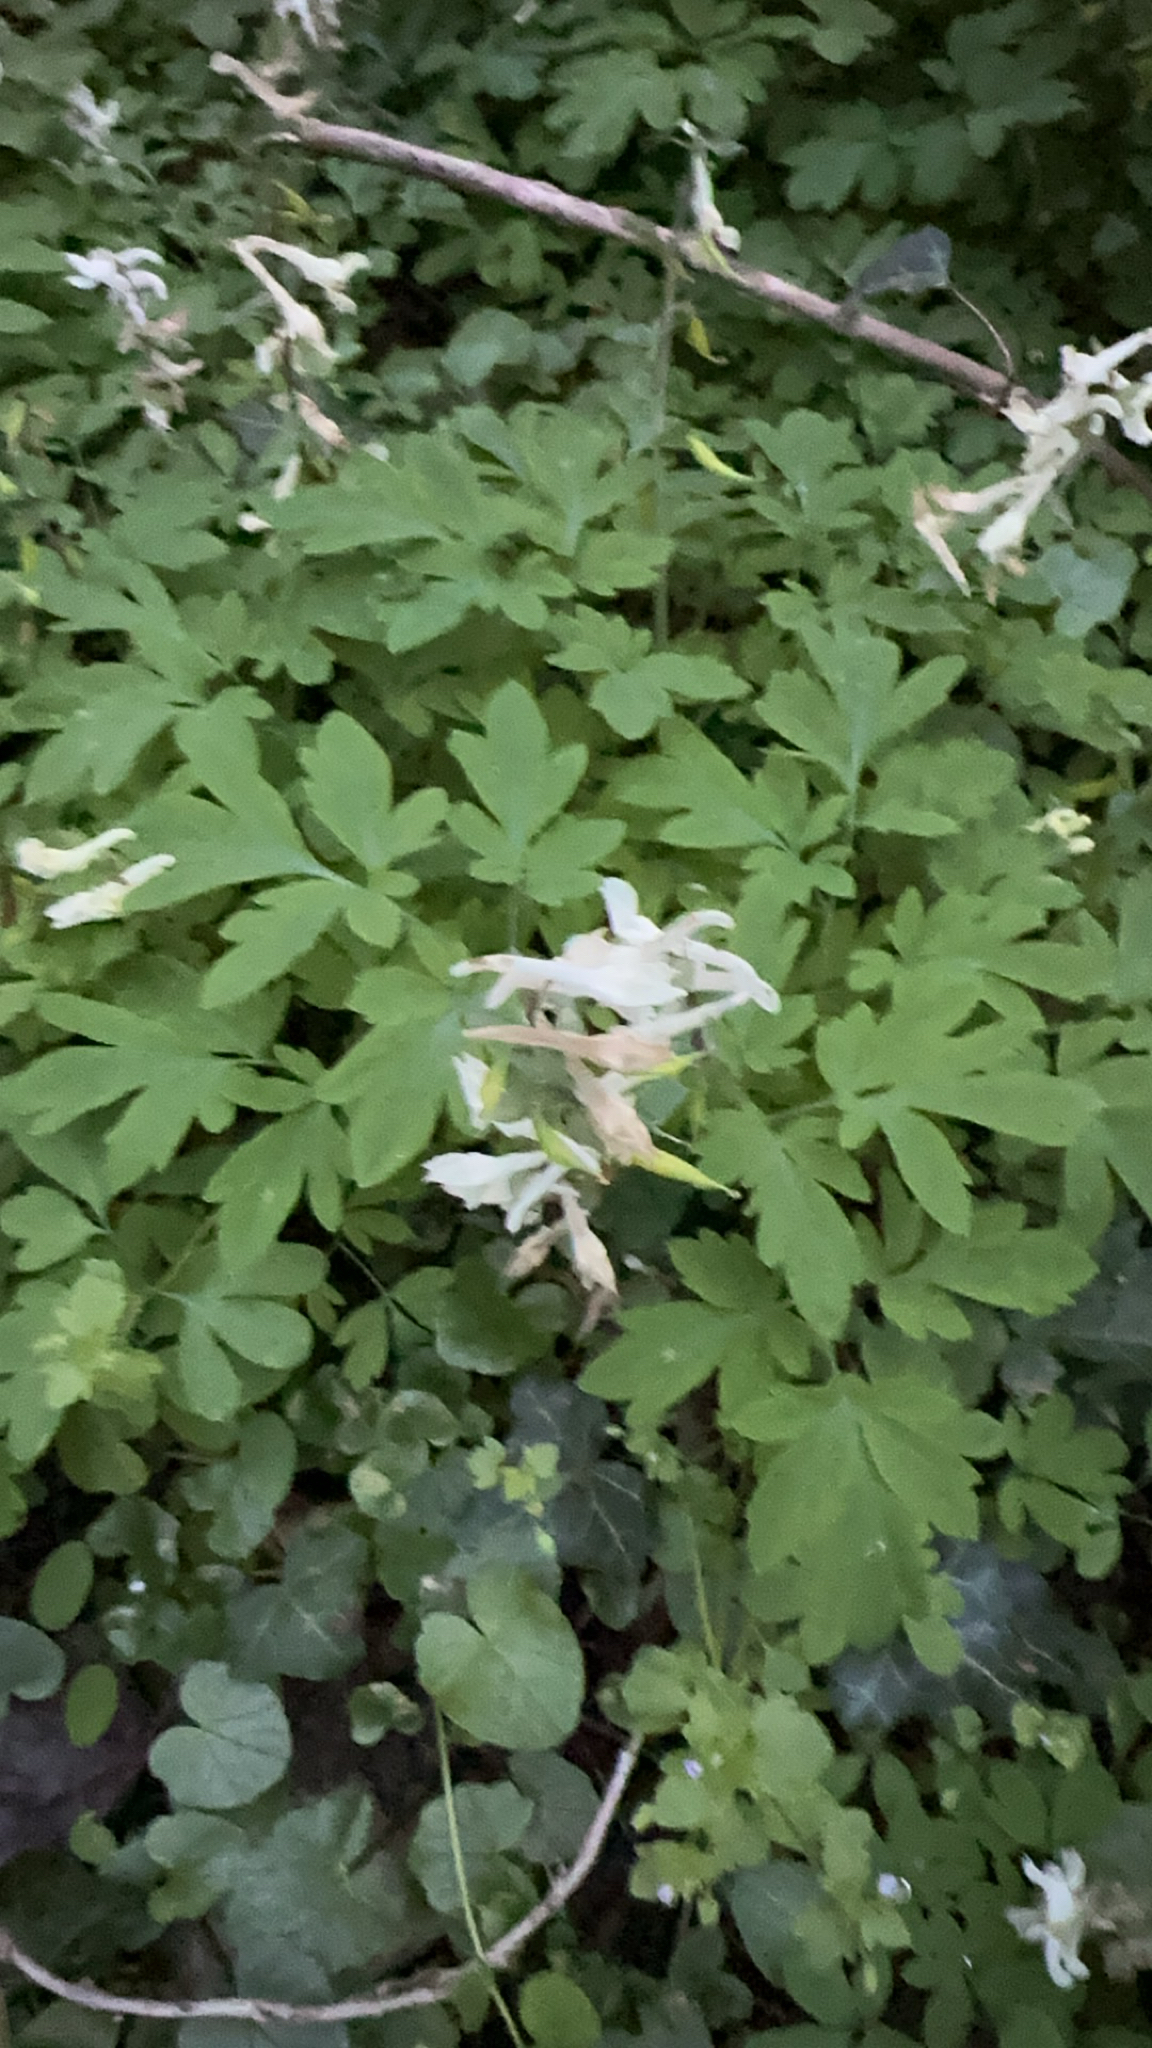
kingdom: Plantae
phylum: Tracheophyta
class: Magnoliopsida
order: Ranunculales
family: Papaveraceae
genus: Corydalis
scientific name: Corydalis cava
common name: Hollowroot
